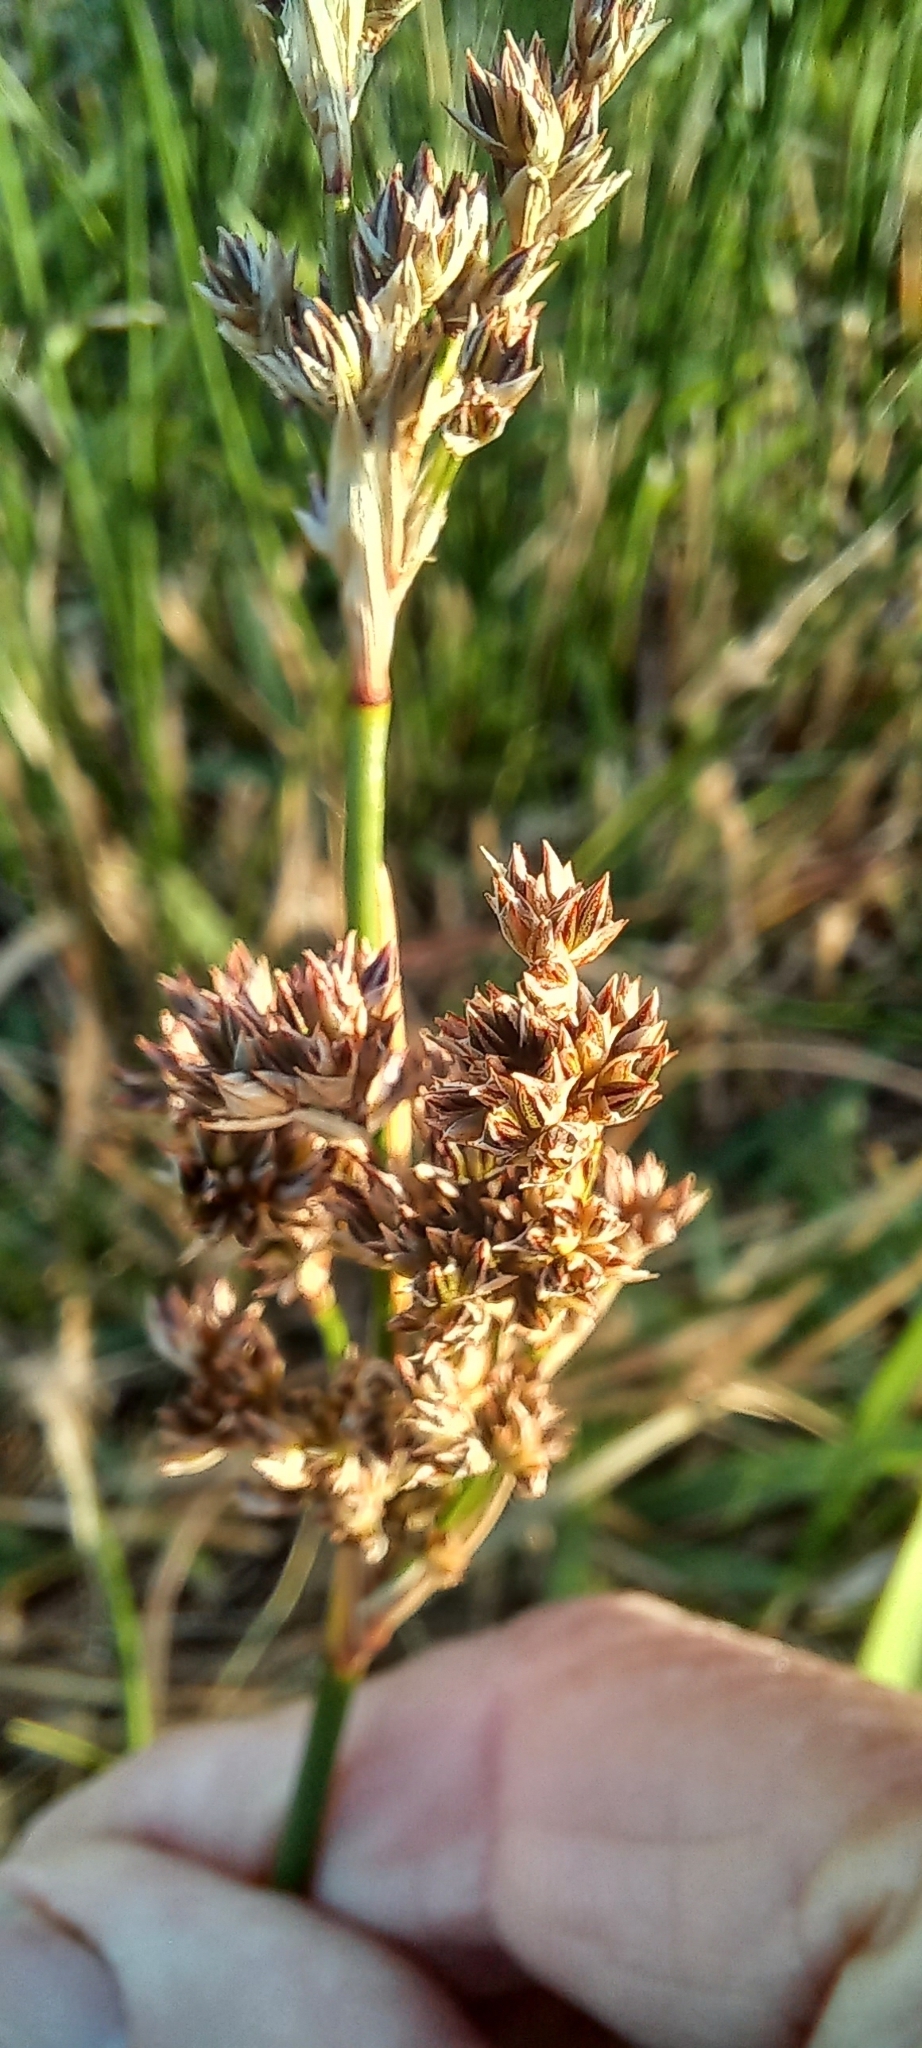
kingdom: Plantae
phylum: Tracheophyta
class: Liliopsida
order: Poales
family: Juncaceae
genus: Juncus
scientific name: Juncus kraussii
